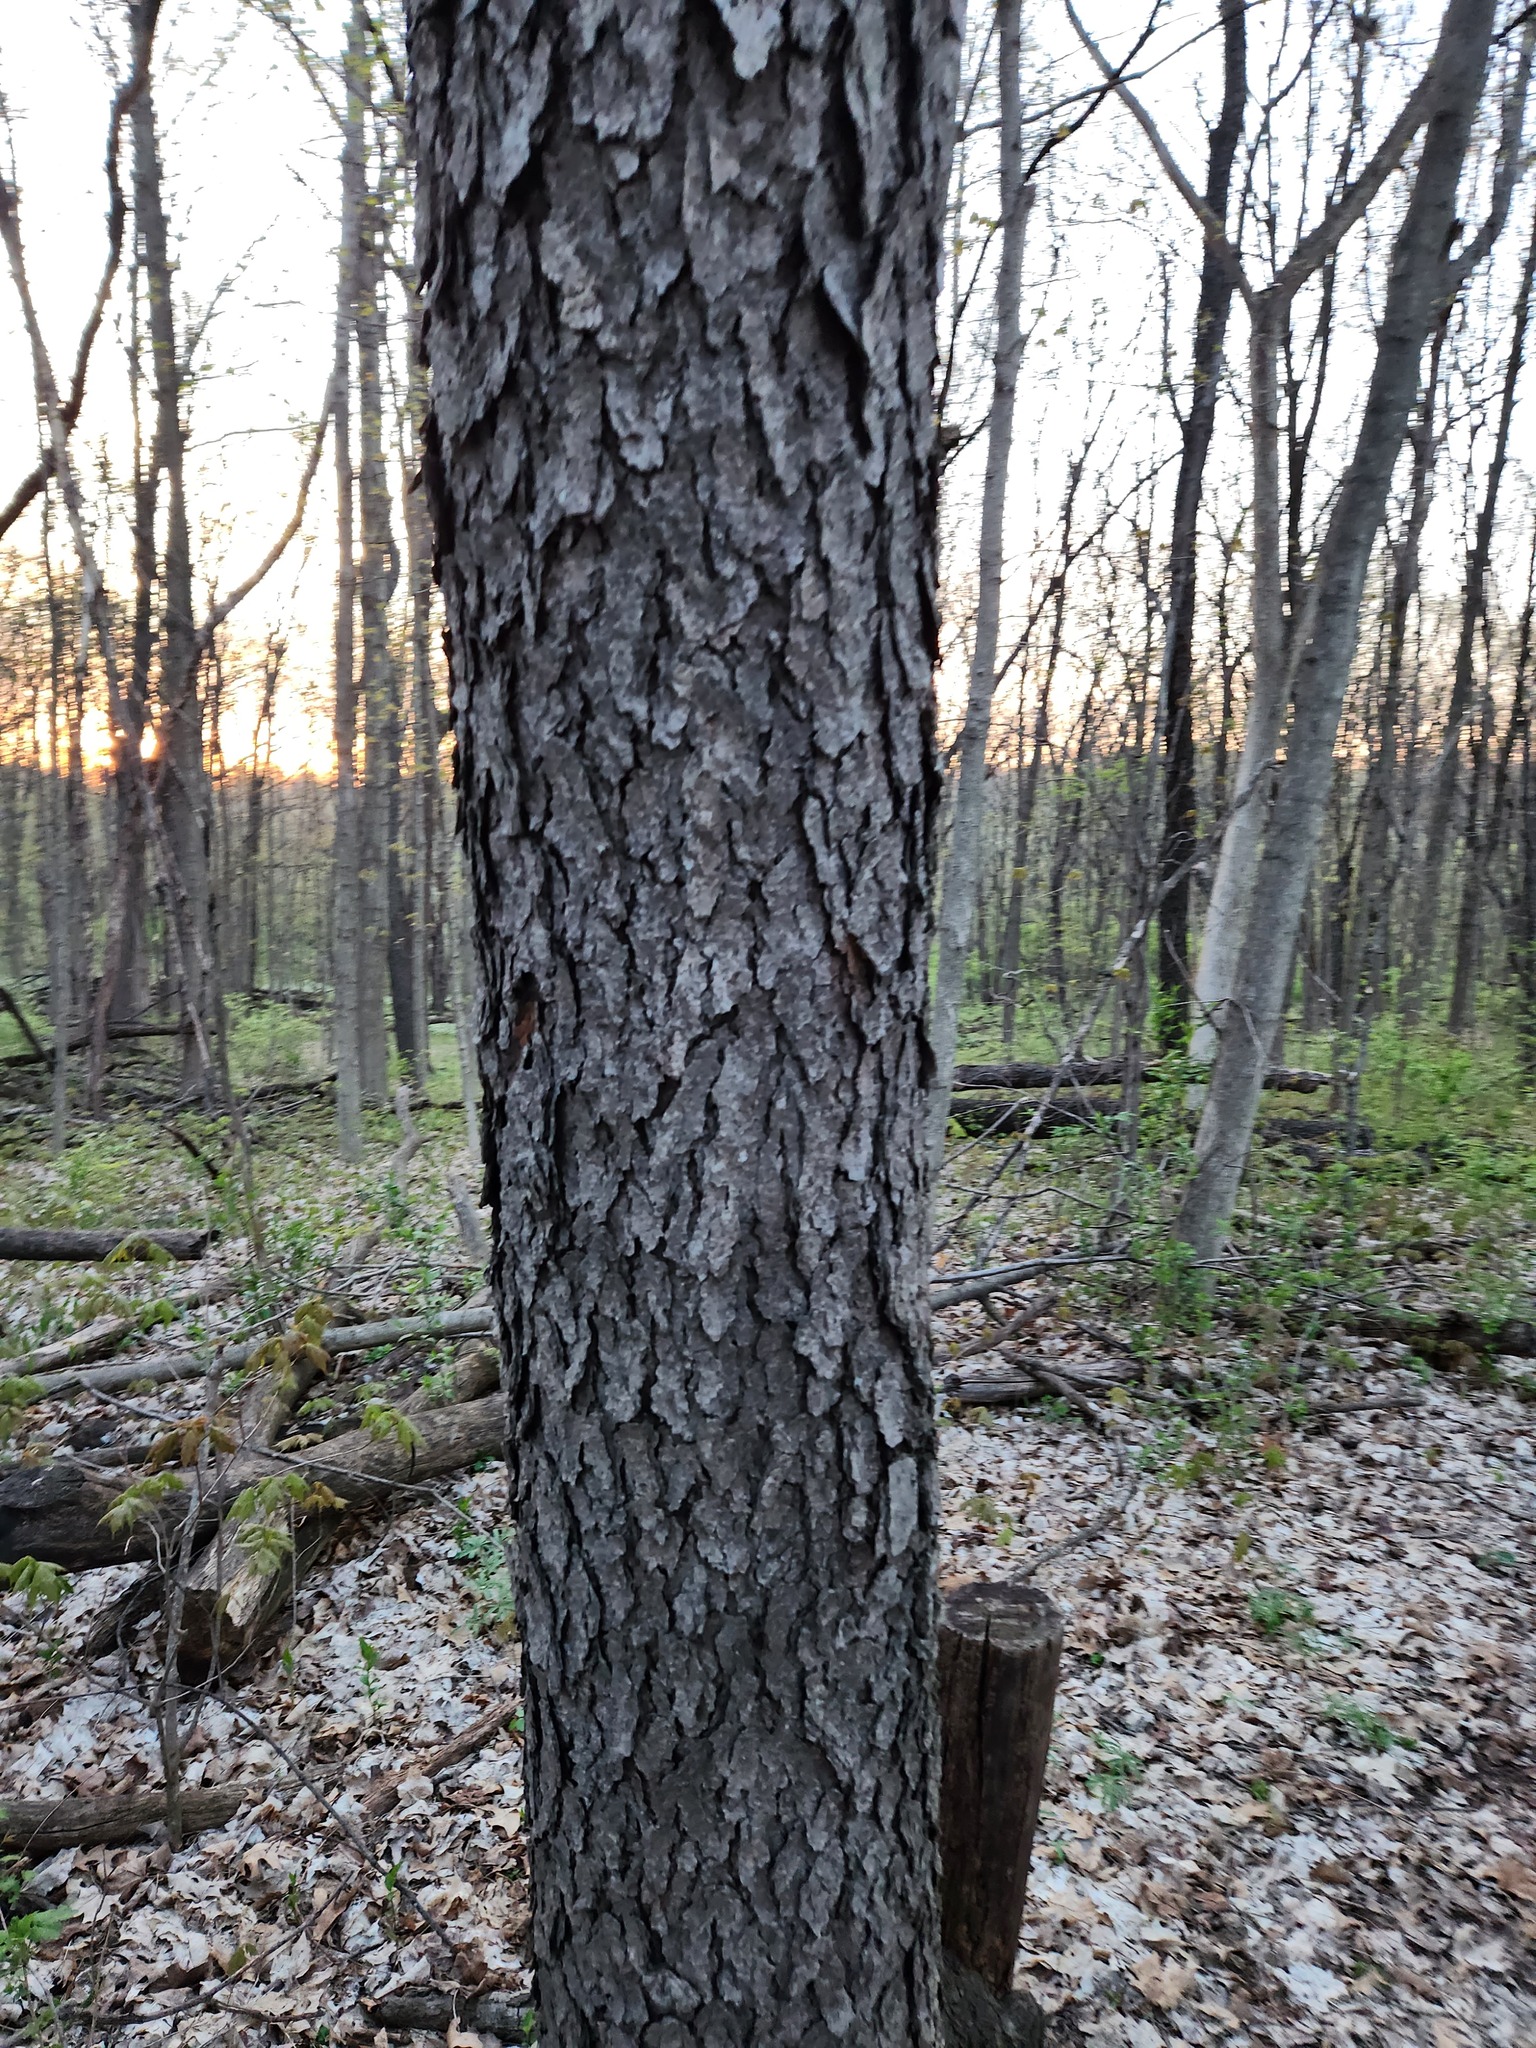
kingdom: Plantae
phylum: Tracheophyta
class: Magnoliopsida
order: Rosales
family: Rosaceae
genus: Prunus
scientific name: Prunus serotina
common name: Black cherry
